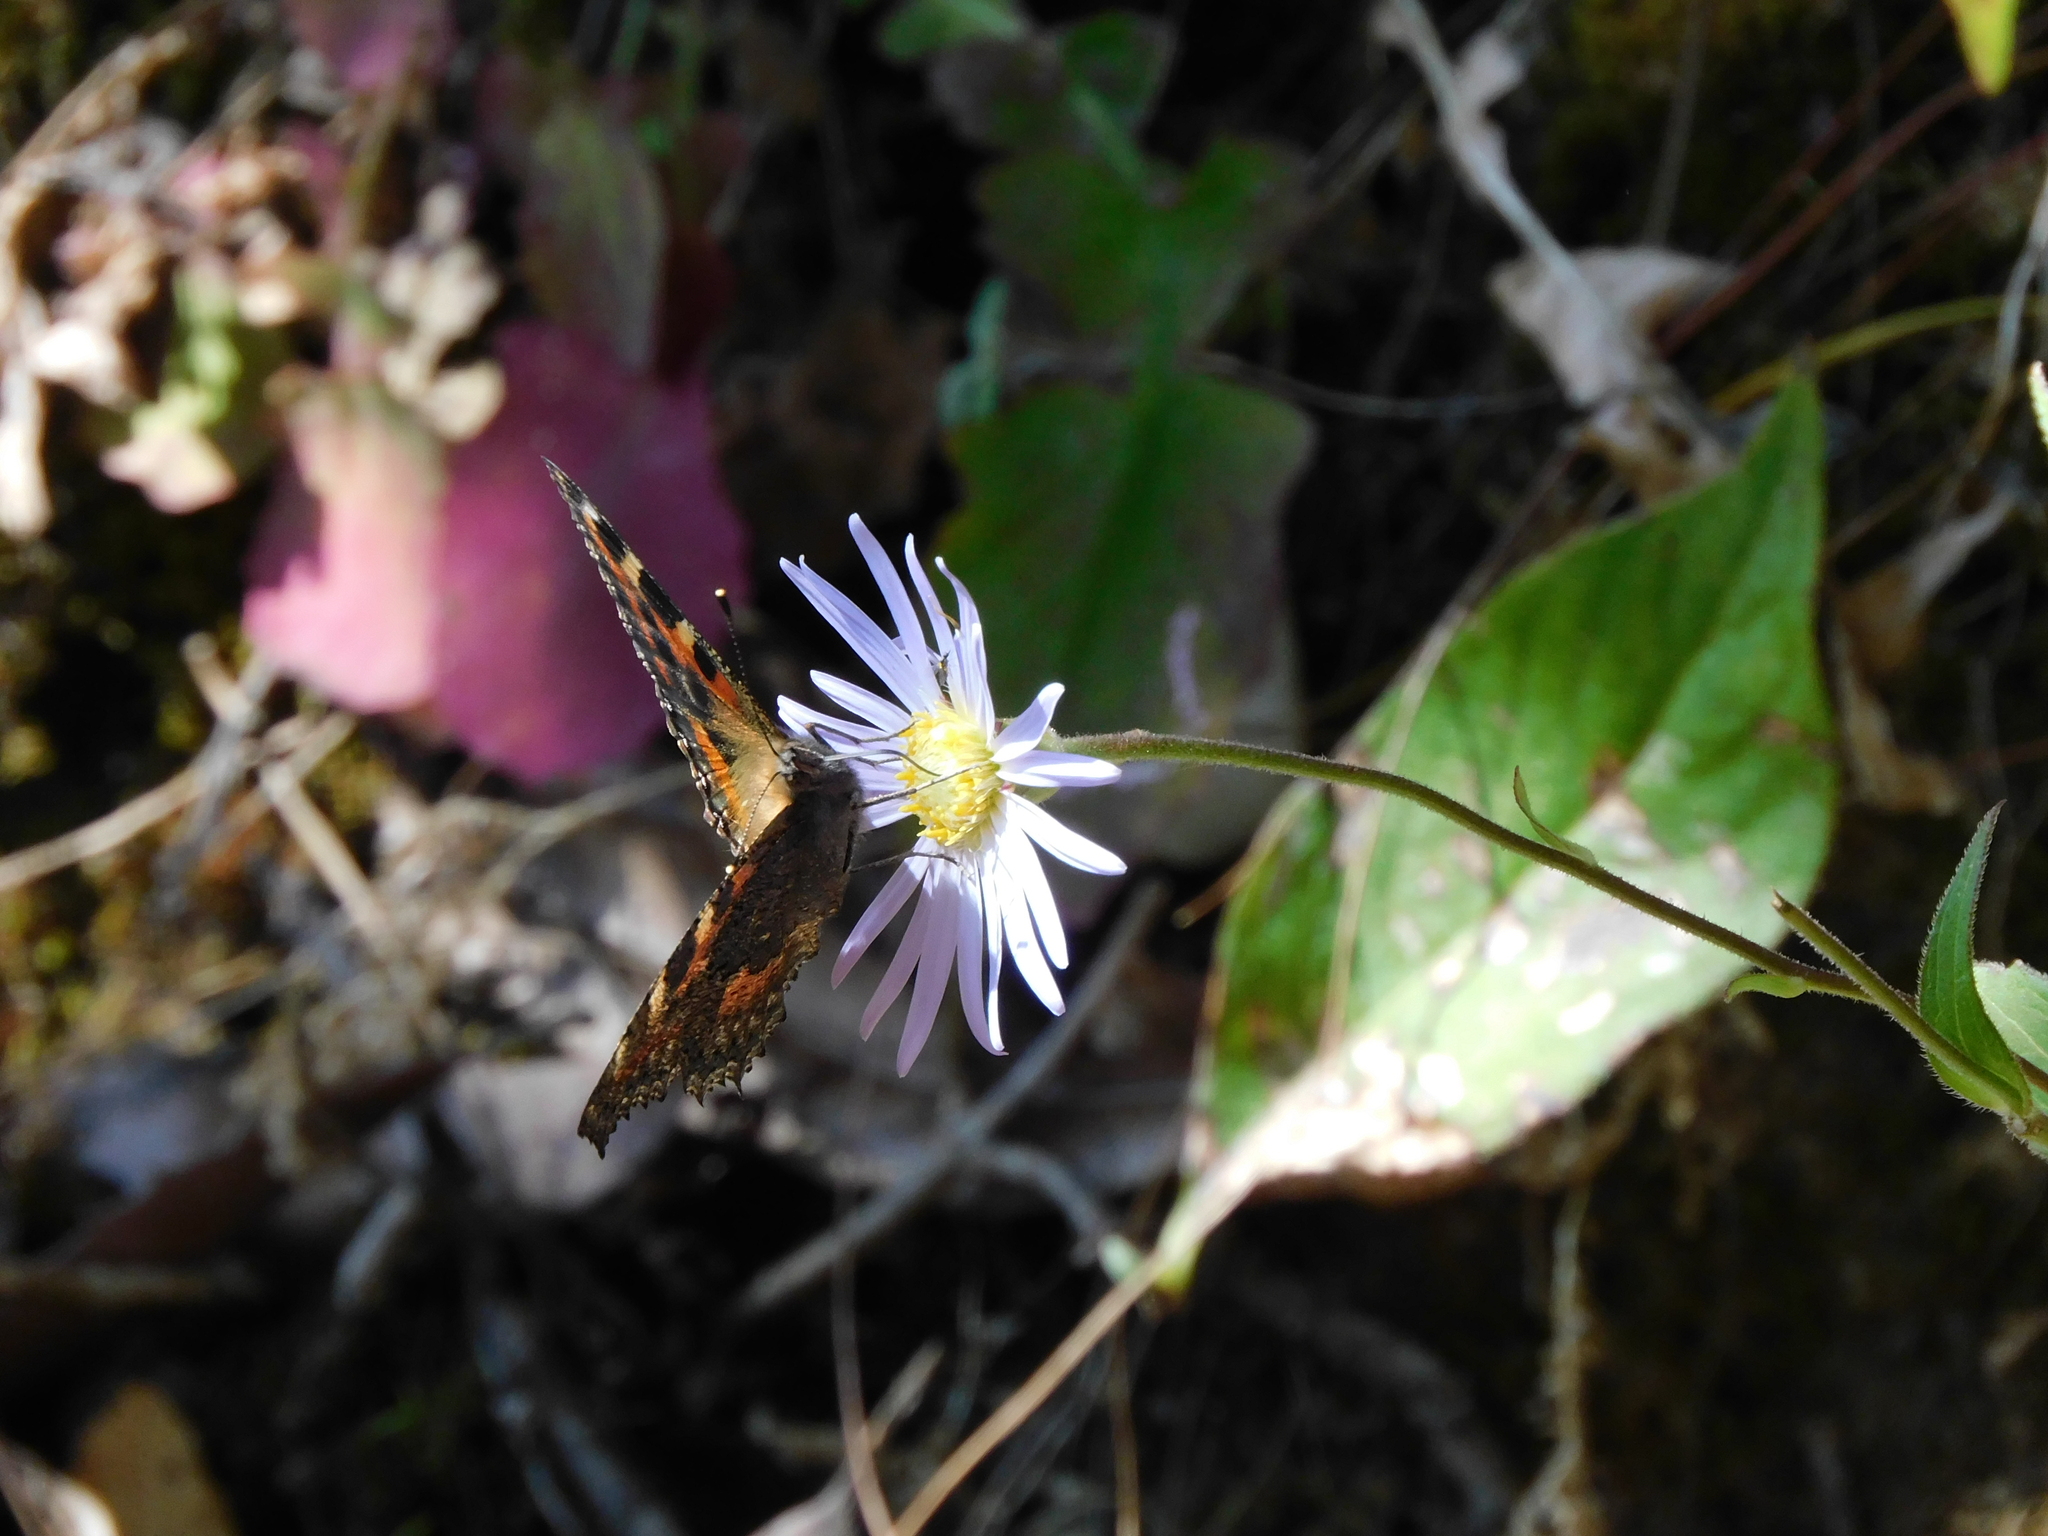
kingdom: Animalia
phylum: Arthropoda
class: Insecta
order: Lepidoptera
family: Nymphalidae
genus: Aglais
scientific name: Aglais caschmirensis
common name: Indian tortoiseshell
